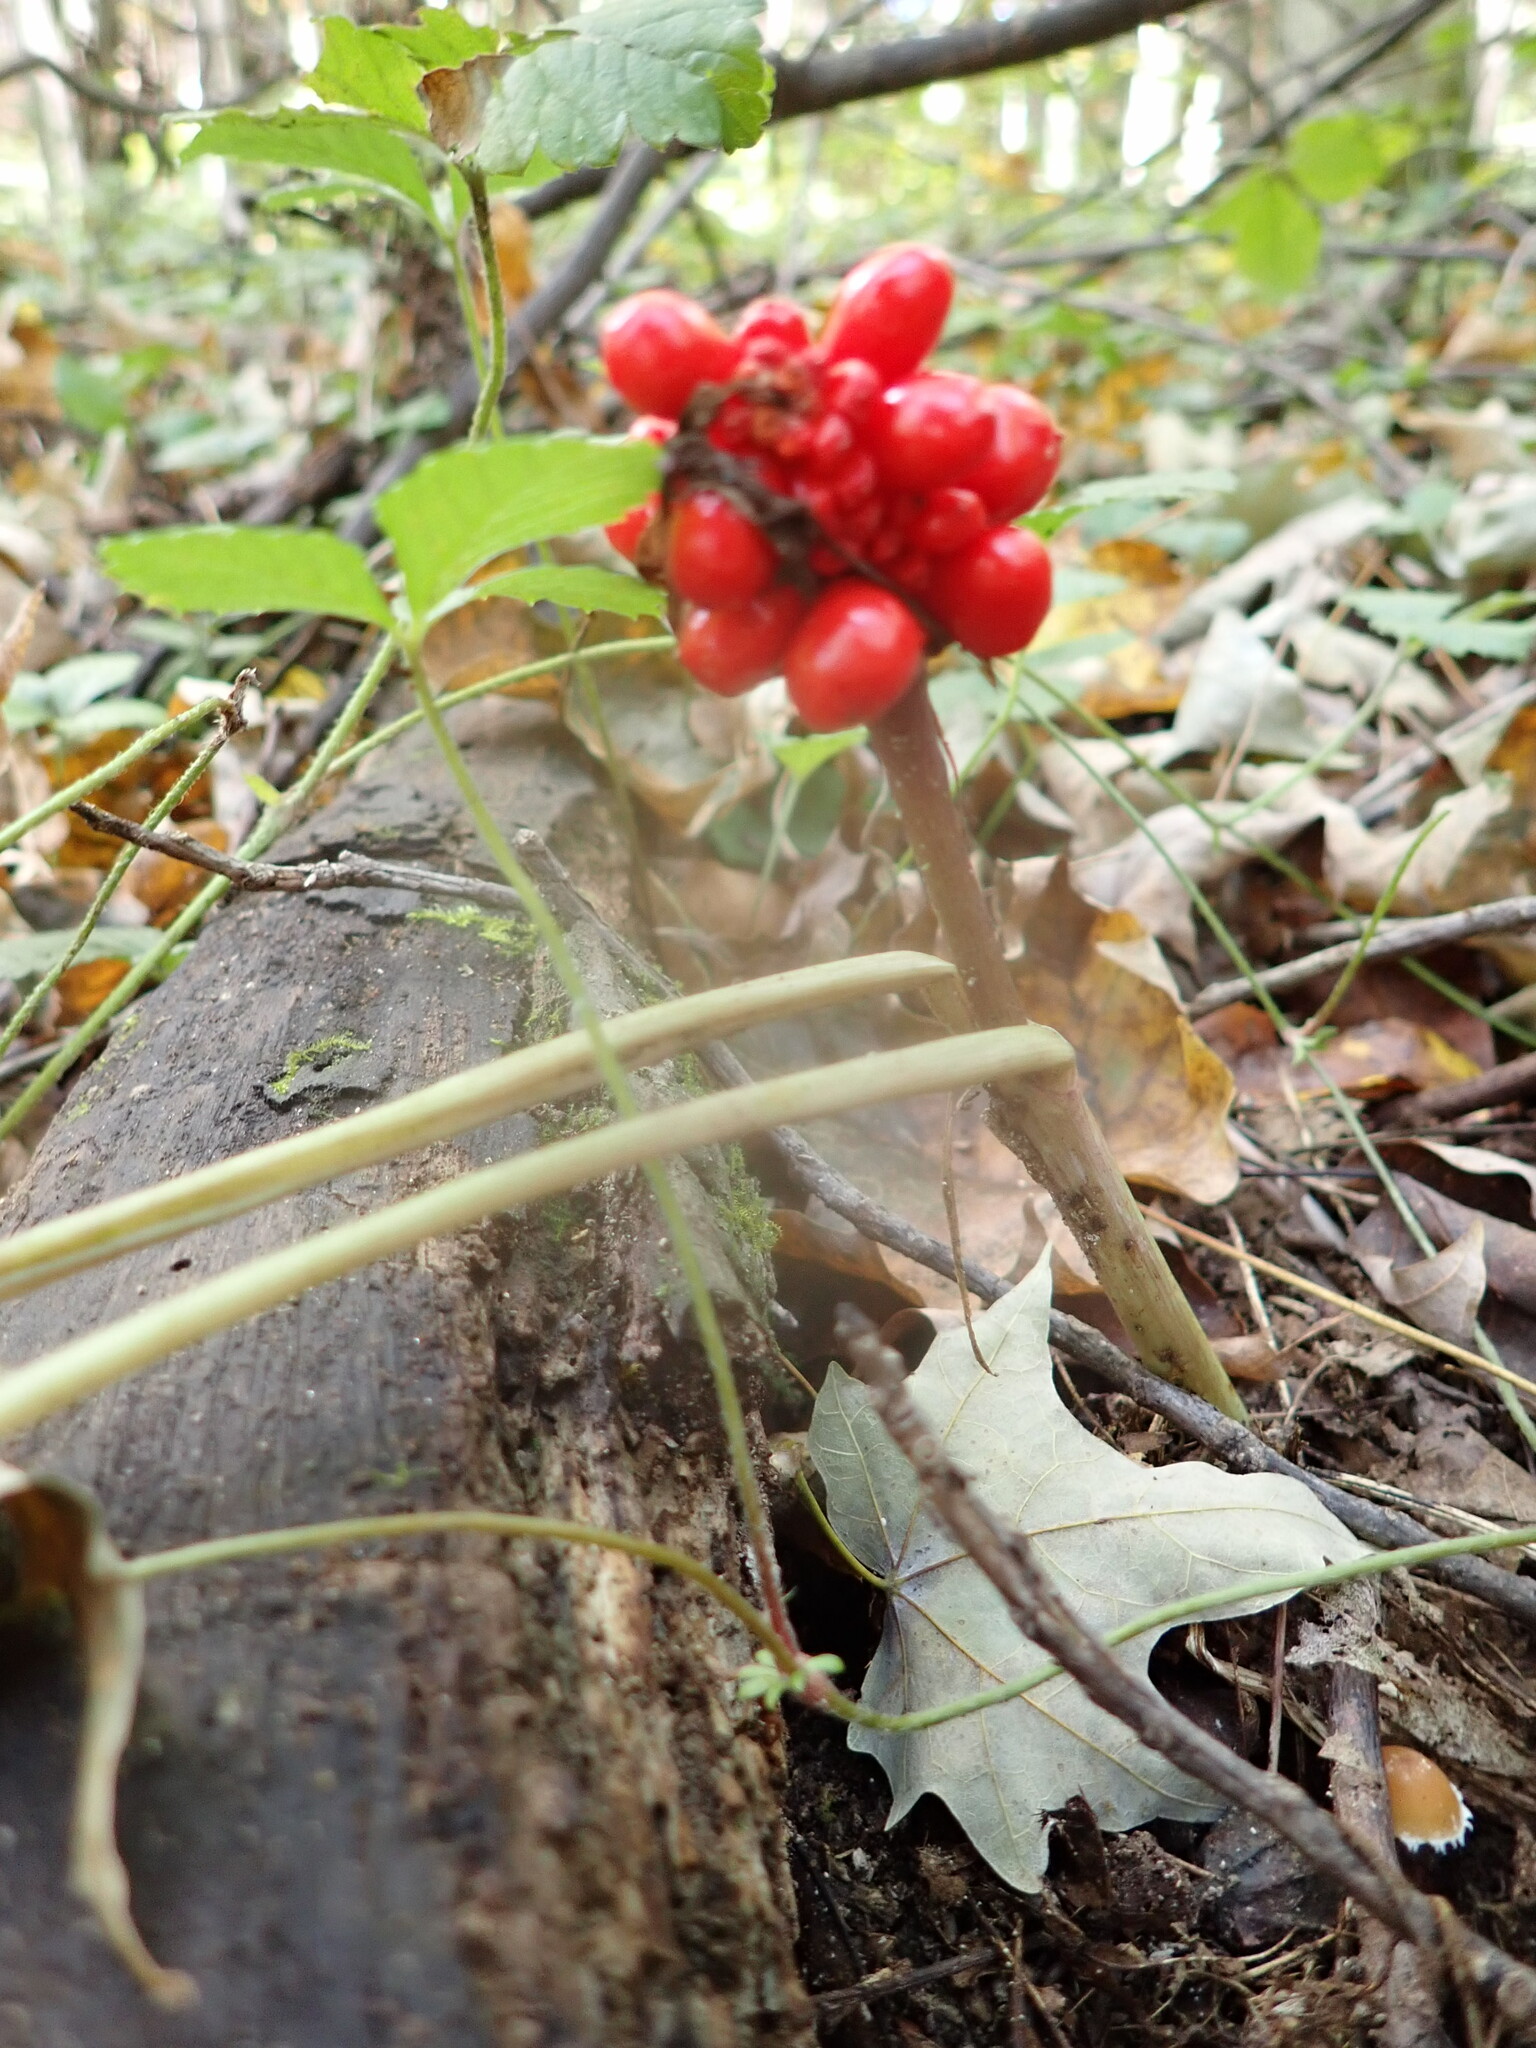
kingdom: Plantae
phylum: Tracheophyta
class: Liliopsida
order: Alismatales
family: Araceae
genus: Arisaema
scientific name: Arisaema triphyllum
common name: Jack-in-the-pulpit
